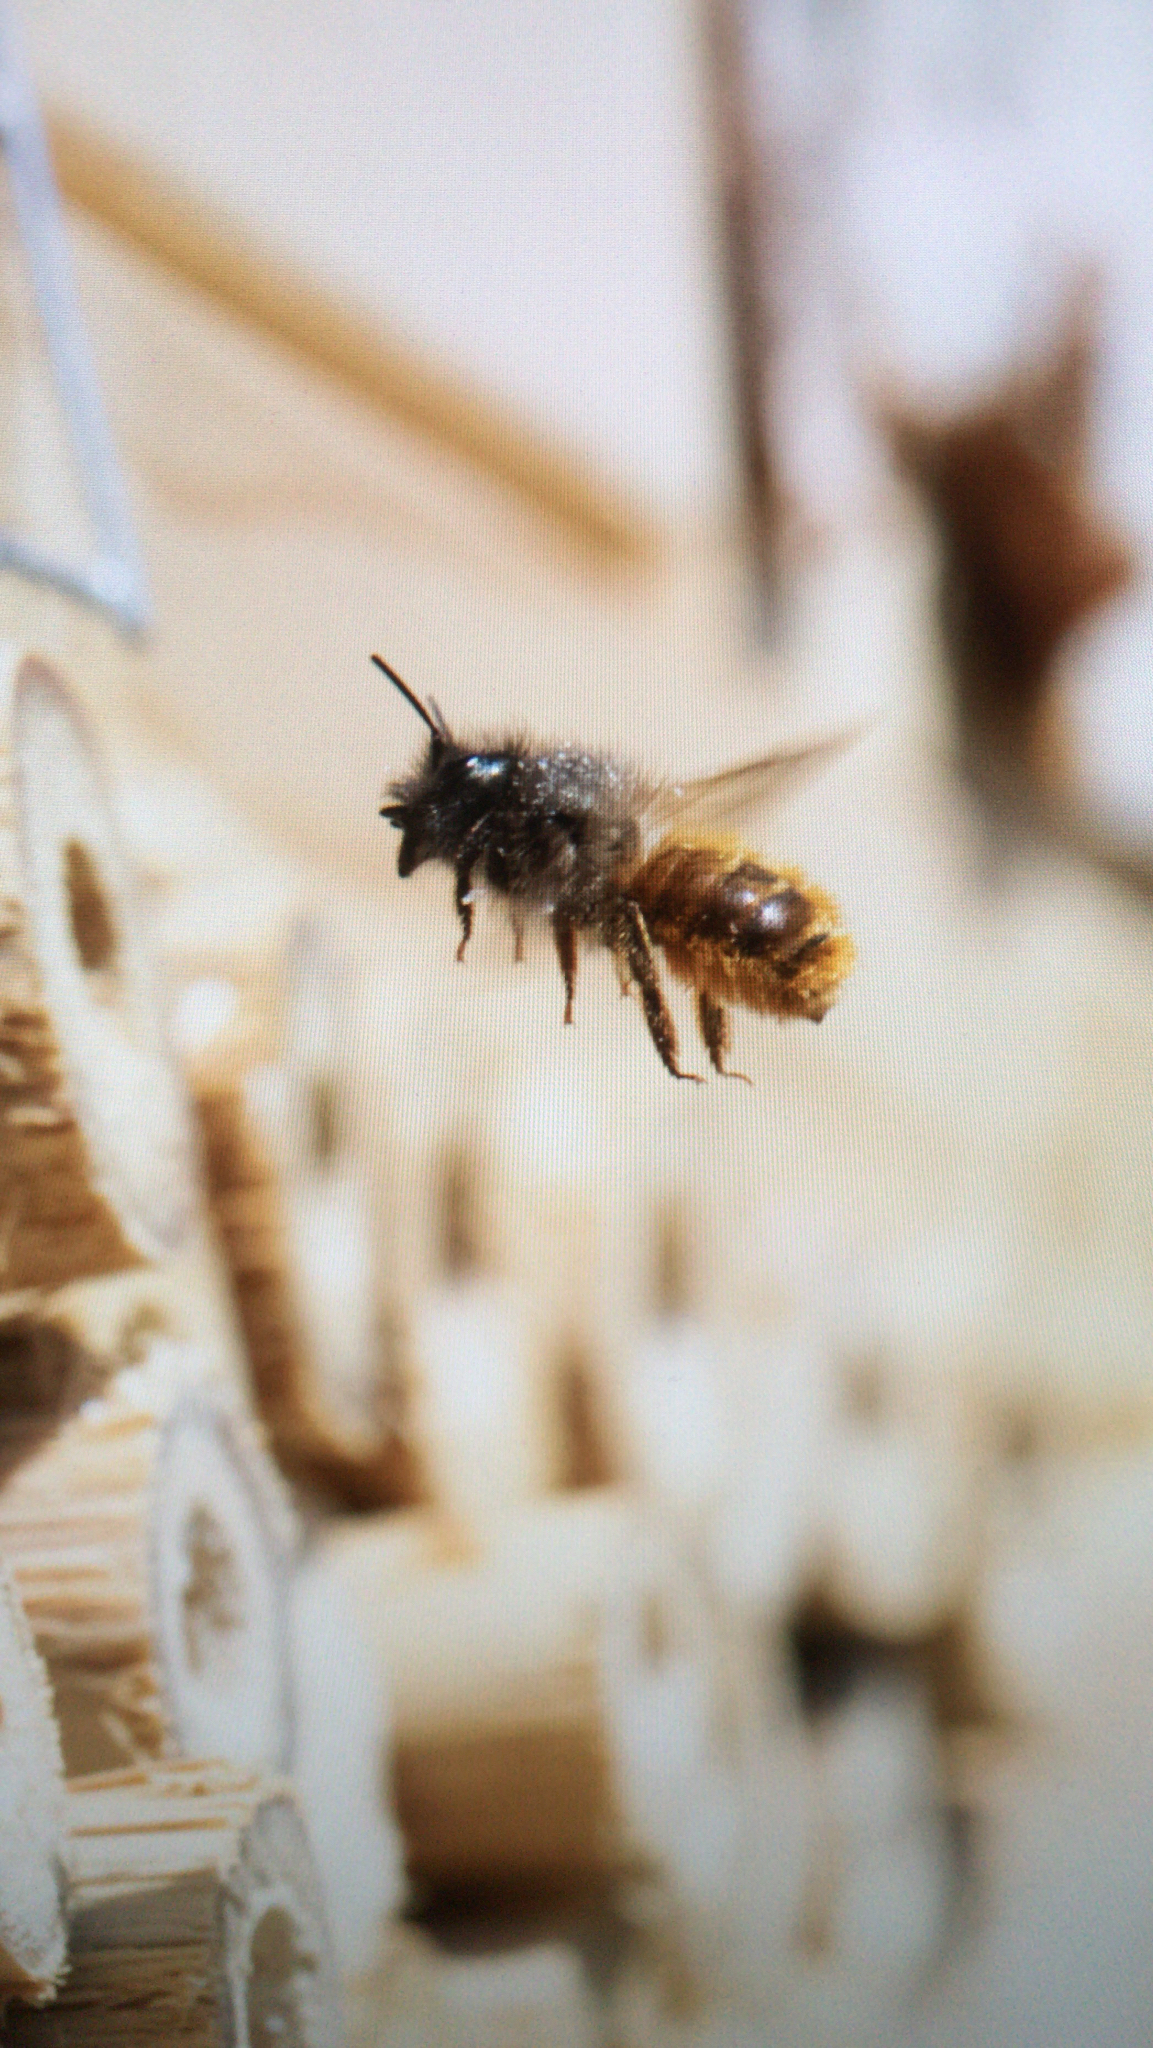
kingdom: Animalia
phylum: Arthropoda
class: Insecta
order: Hymenoptera
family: Megachilidae
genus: Osmia
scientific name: Osmia bicornis
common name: Red mason bee
